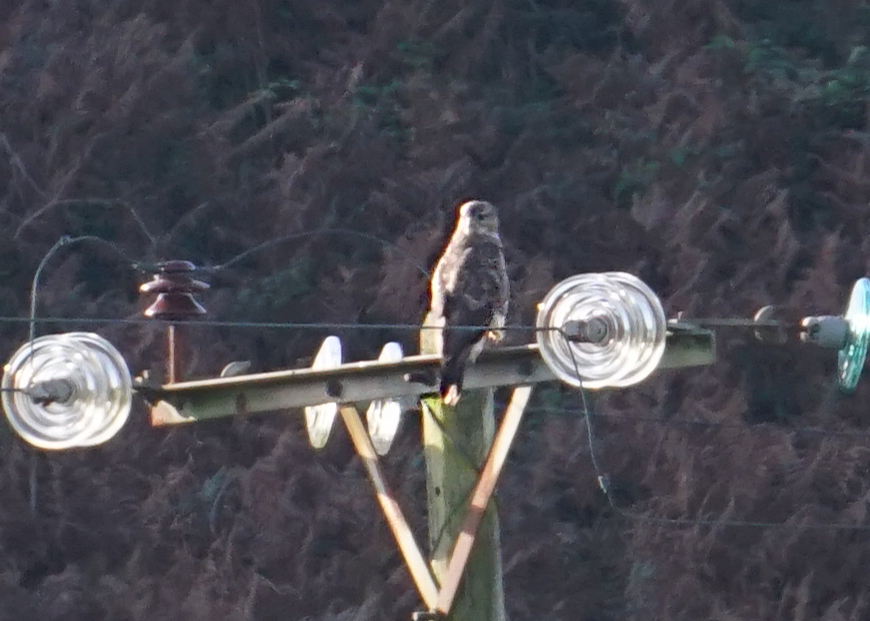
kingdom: Animalia
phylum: Chordata
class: Aves
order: Accipitriformes
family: Accipitridae
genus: Buteo
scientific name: Buteo buteo
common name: Common buzzard
